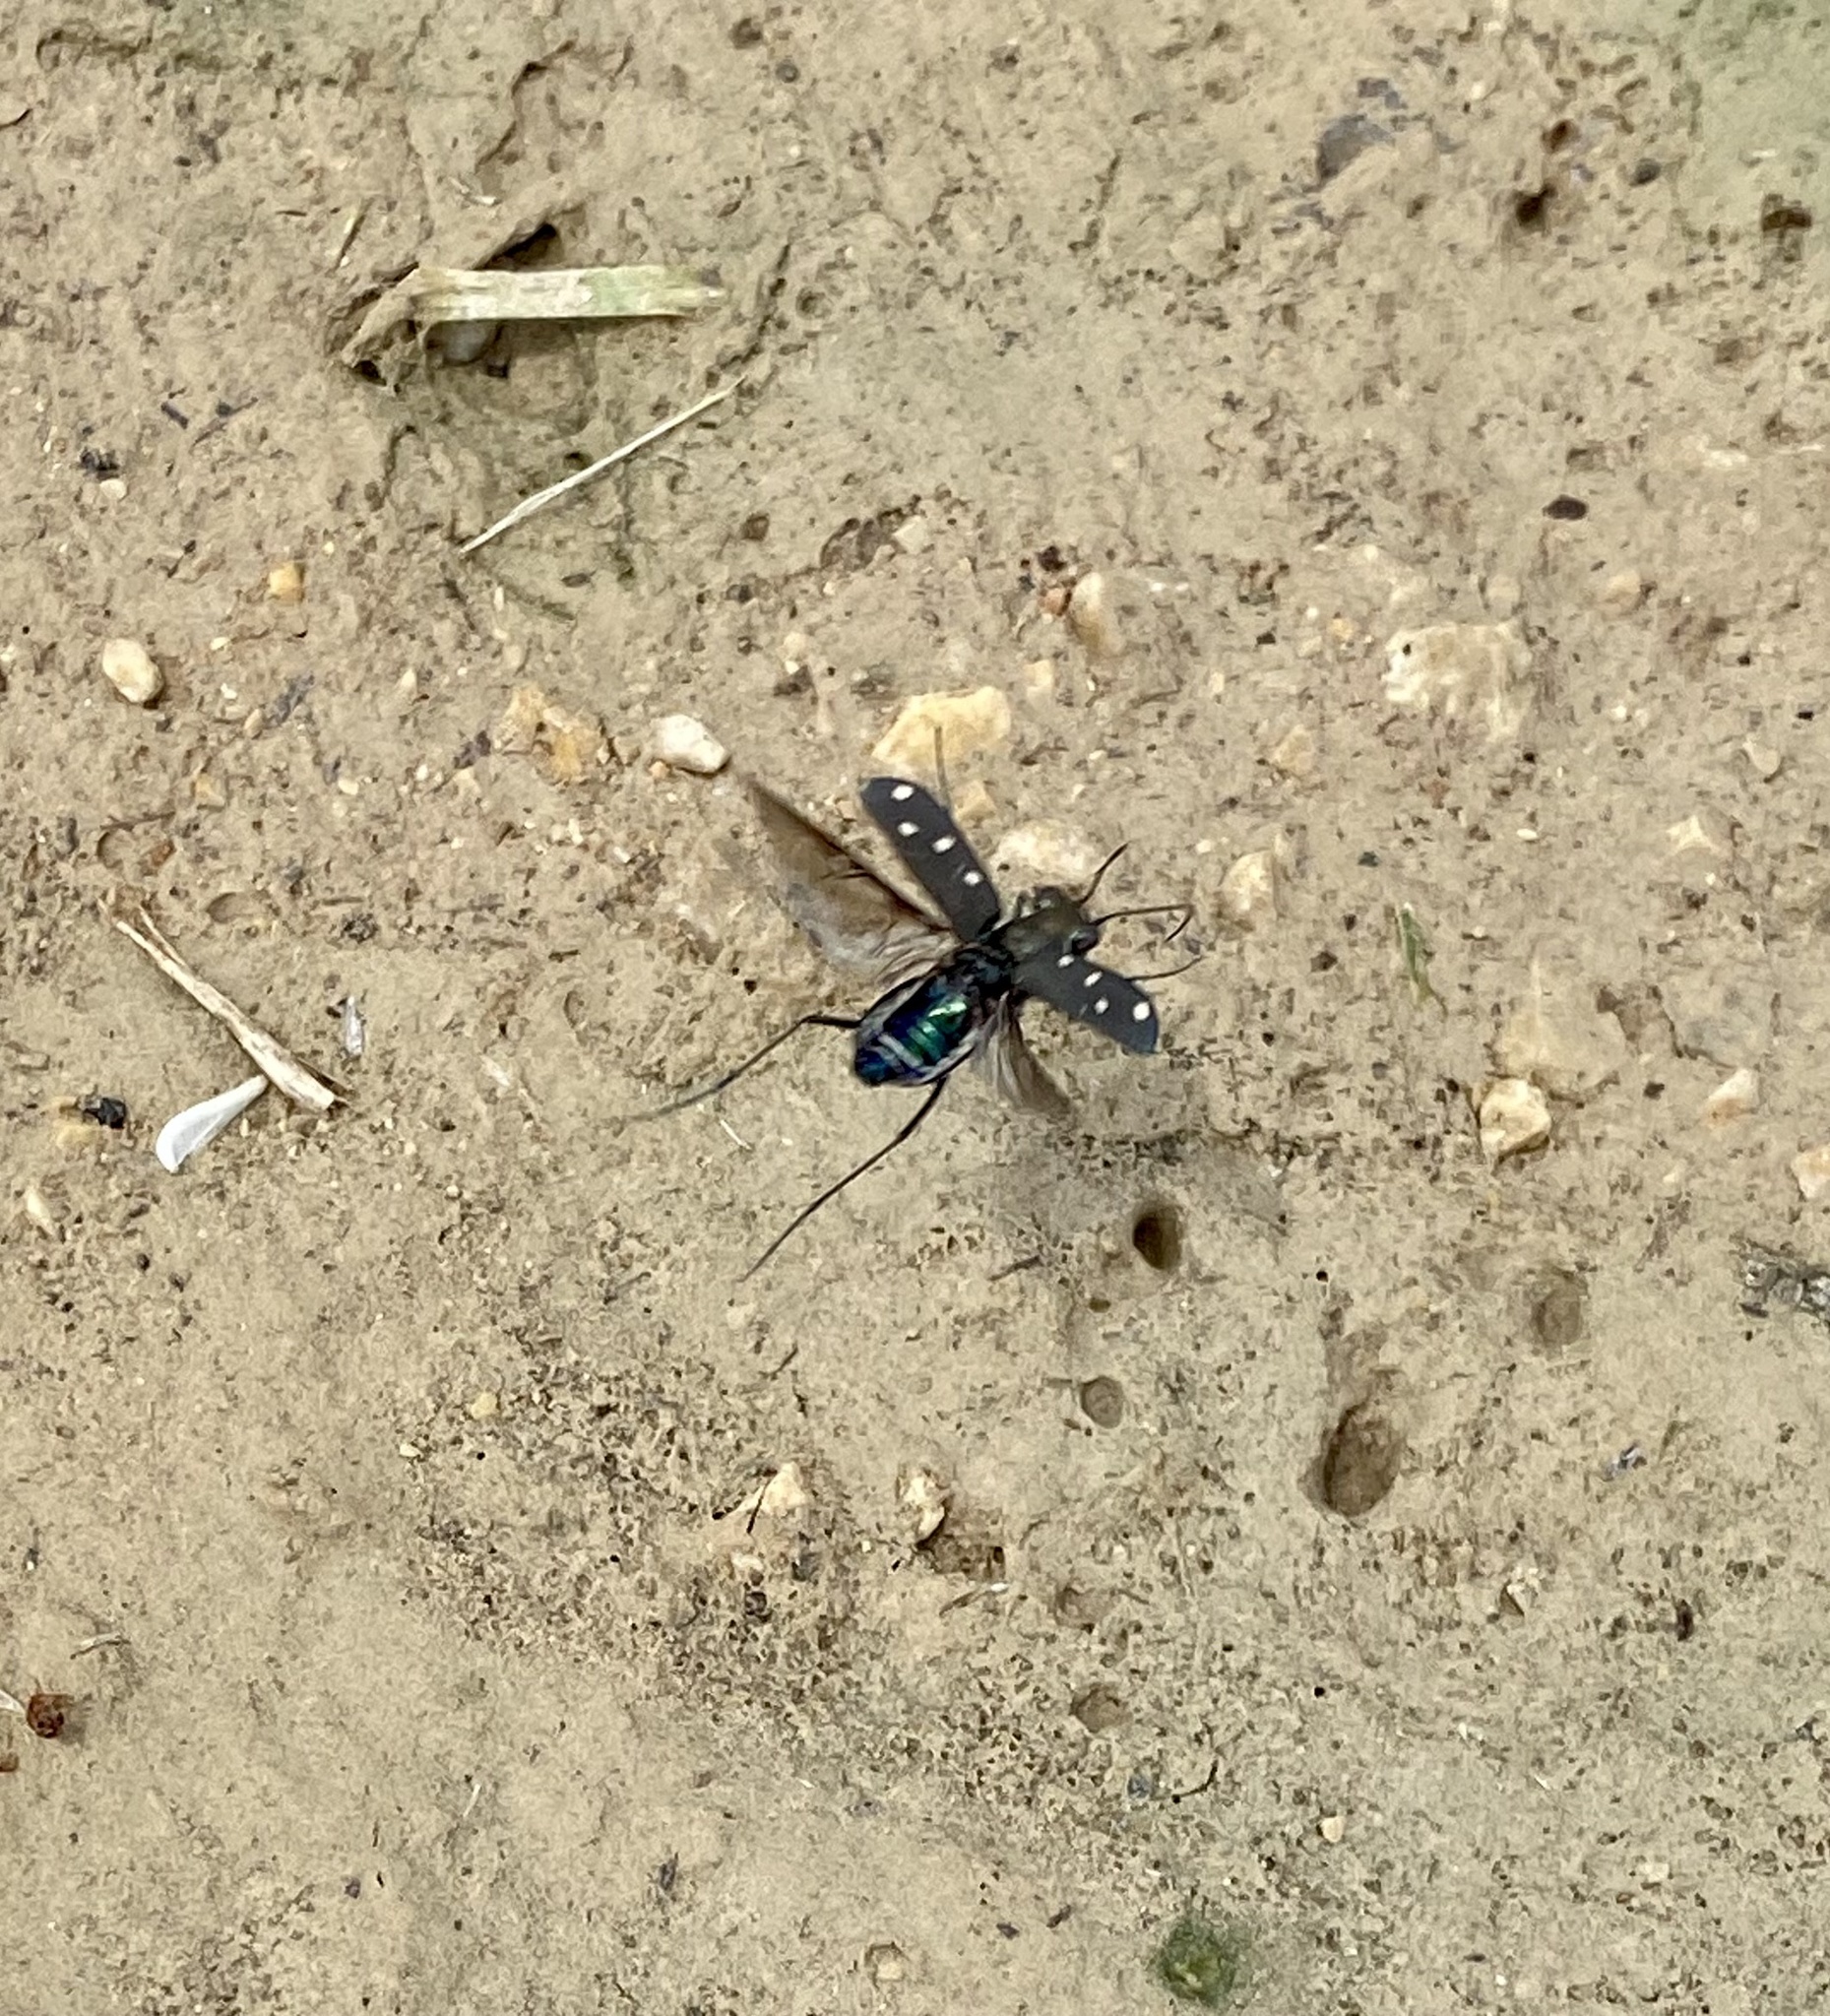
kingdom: Animalia
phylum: Arthropoda
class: Insecta
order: Coleoptera
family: Carabidae
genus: Cicindela
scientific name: Cicindela ocellata
